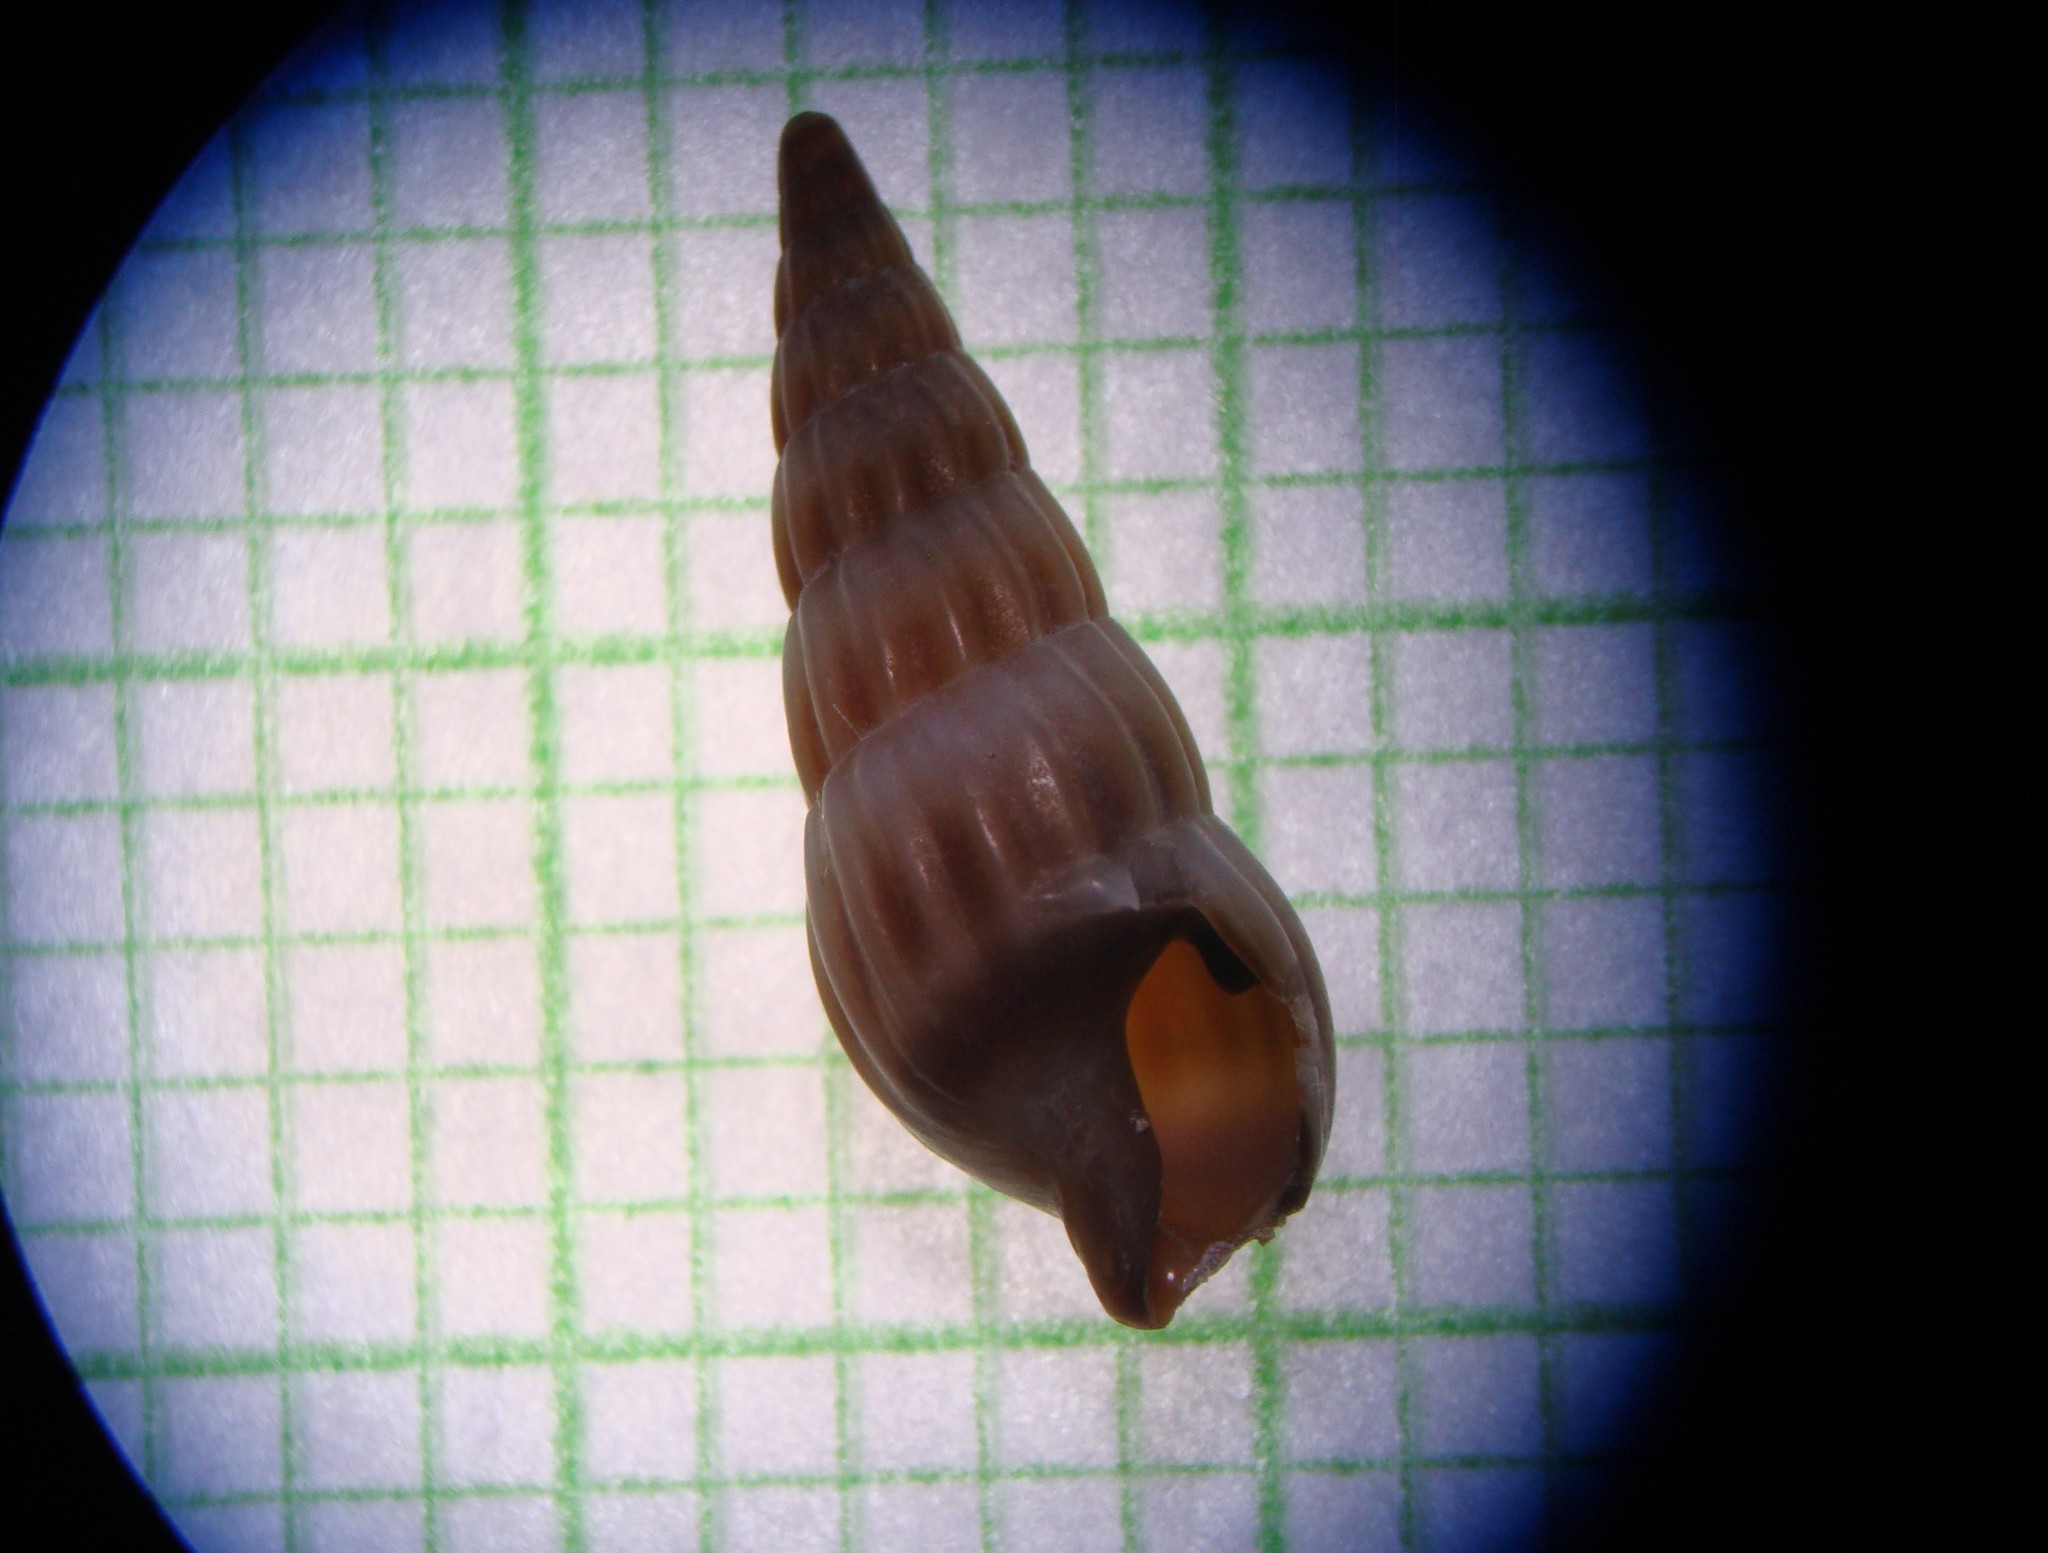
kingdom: Animalia
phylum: Mollusca
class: Gastropoda
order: Neogastropoda
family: Terebridae
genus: Duplicaria
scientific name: Duplicaria tristis
